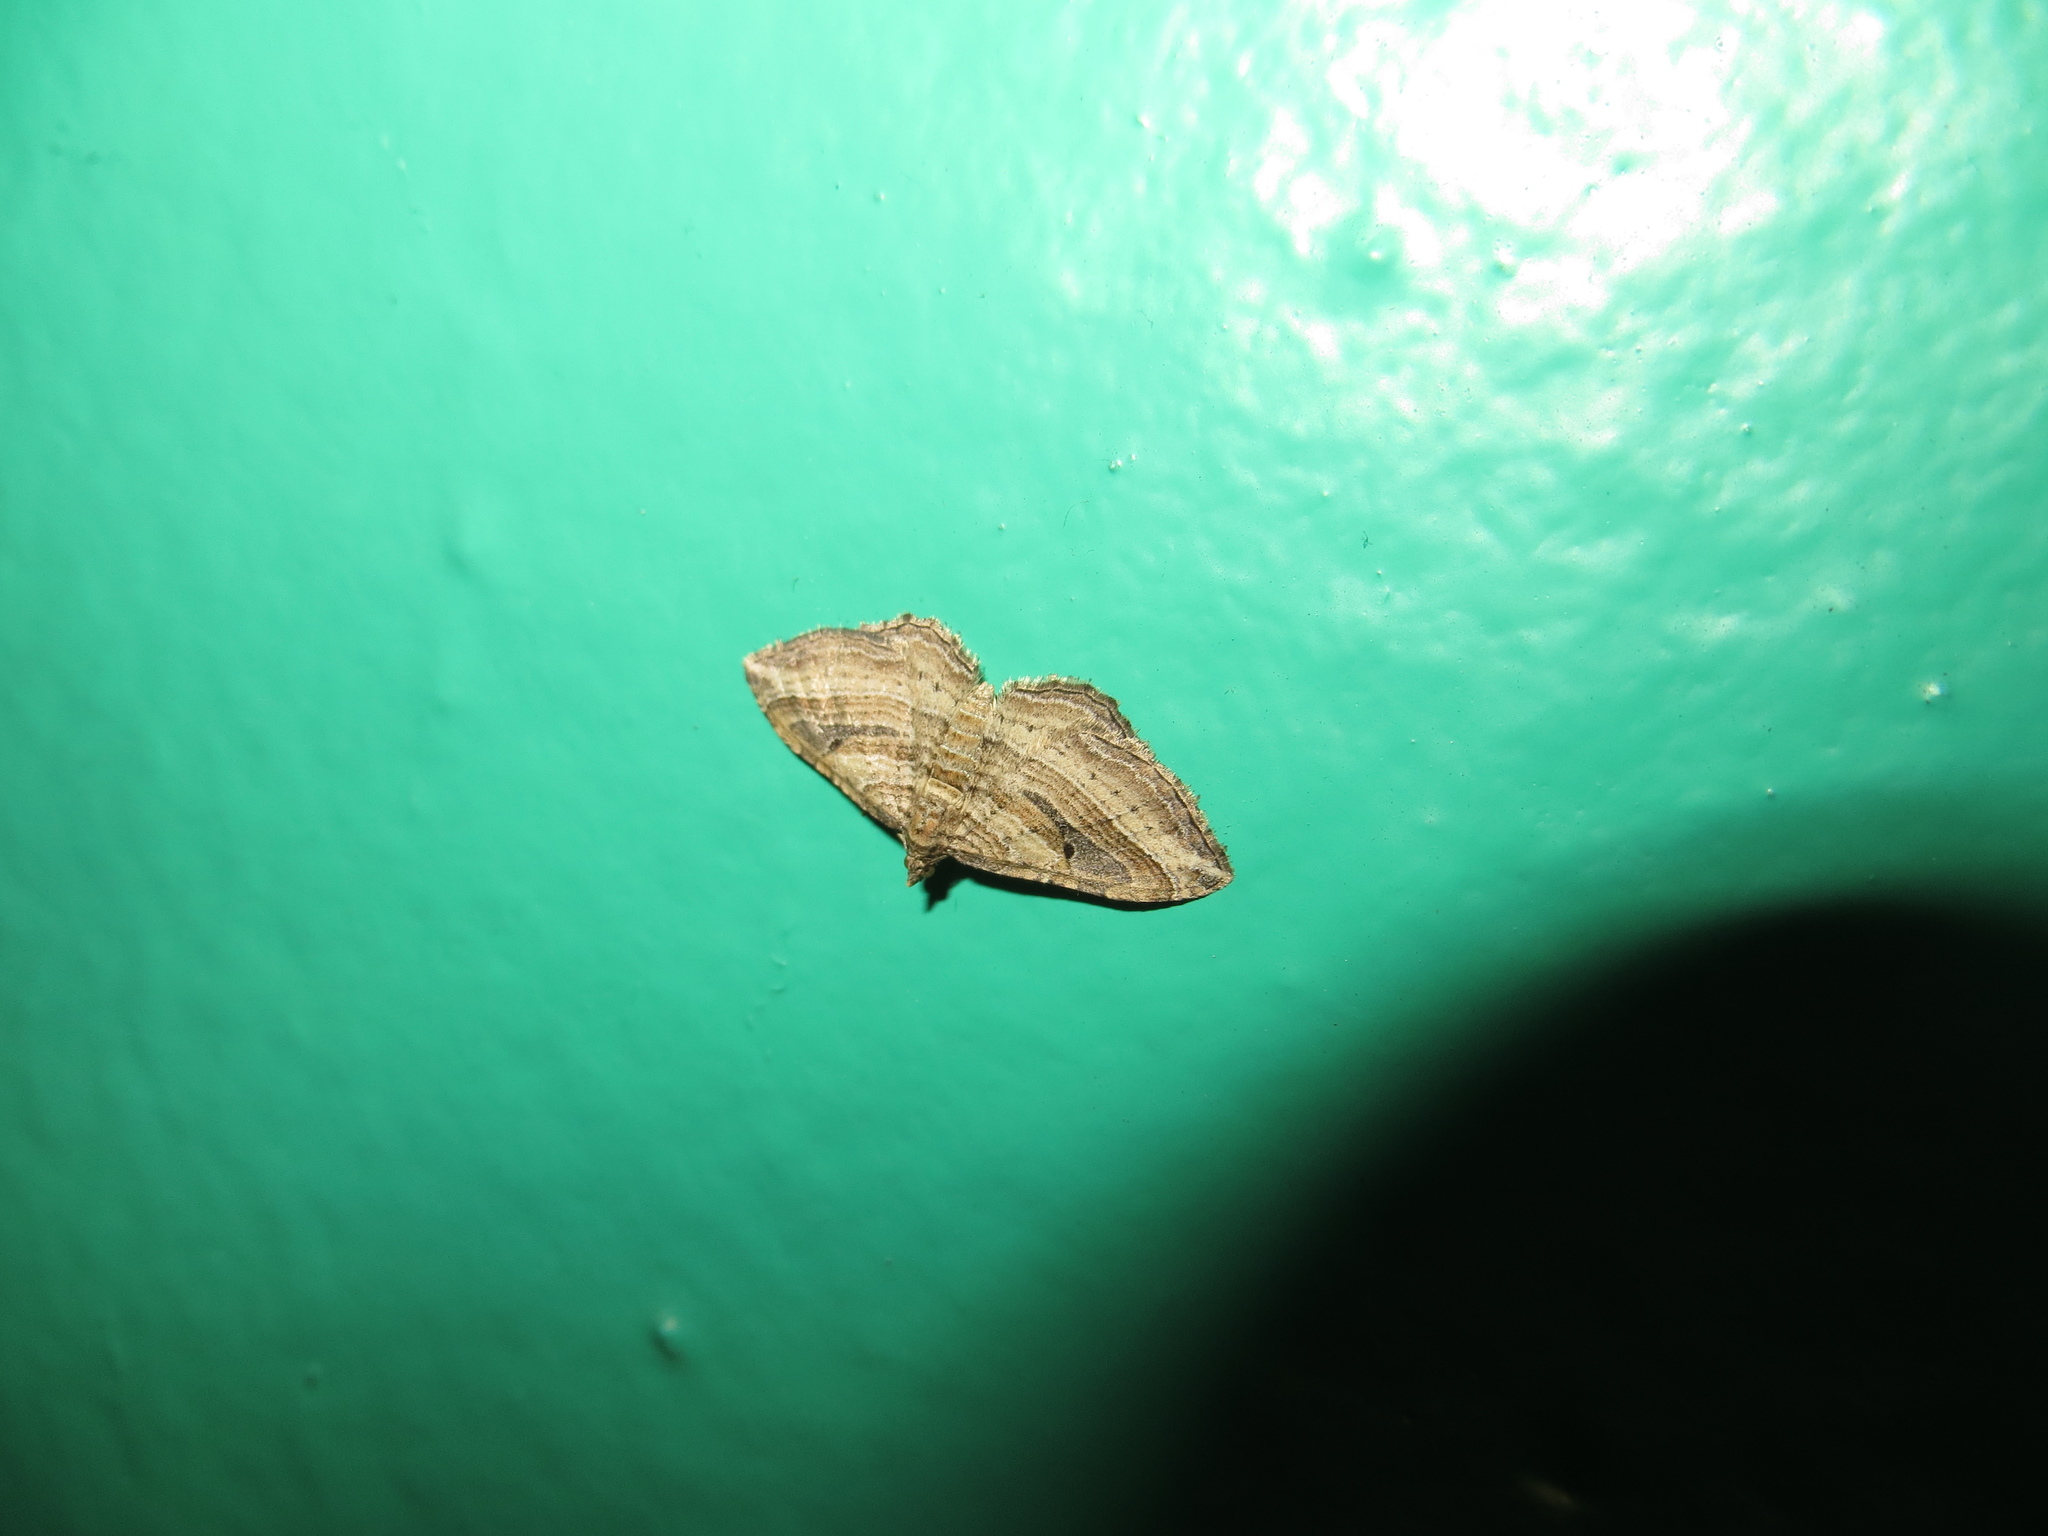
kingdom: Animalia
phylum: Arthropoda
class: Insecta
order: Lepidoptera
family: Geometridae
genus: Costaconvexa
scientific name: Costaconvexa polygrammata
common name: Many-lined
